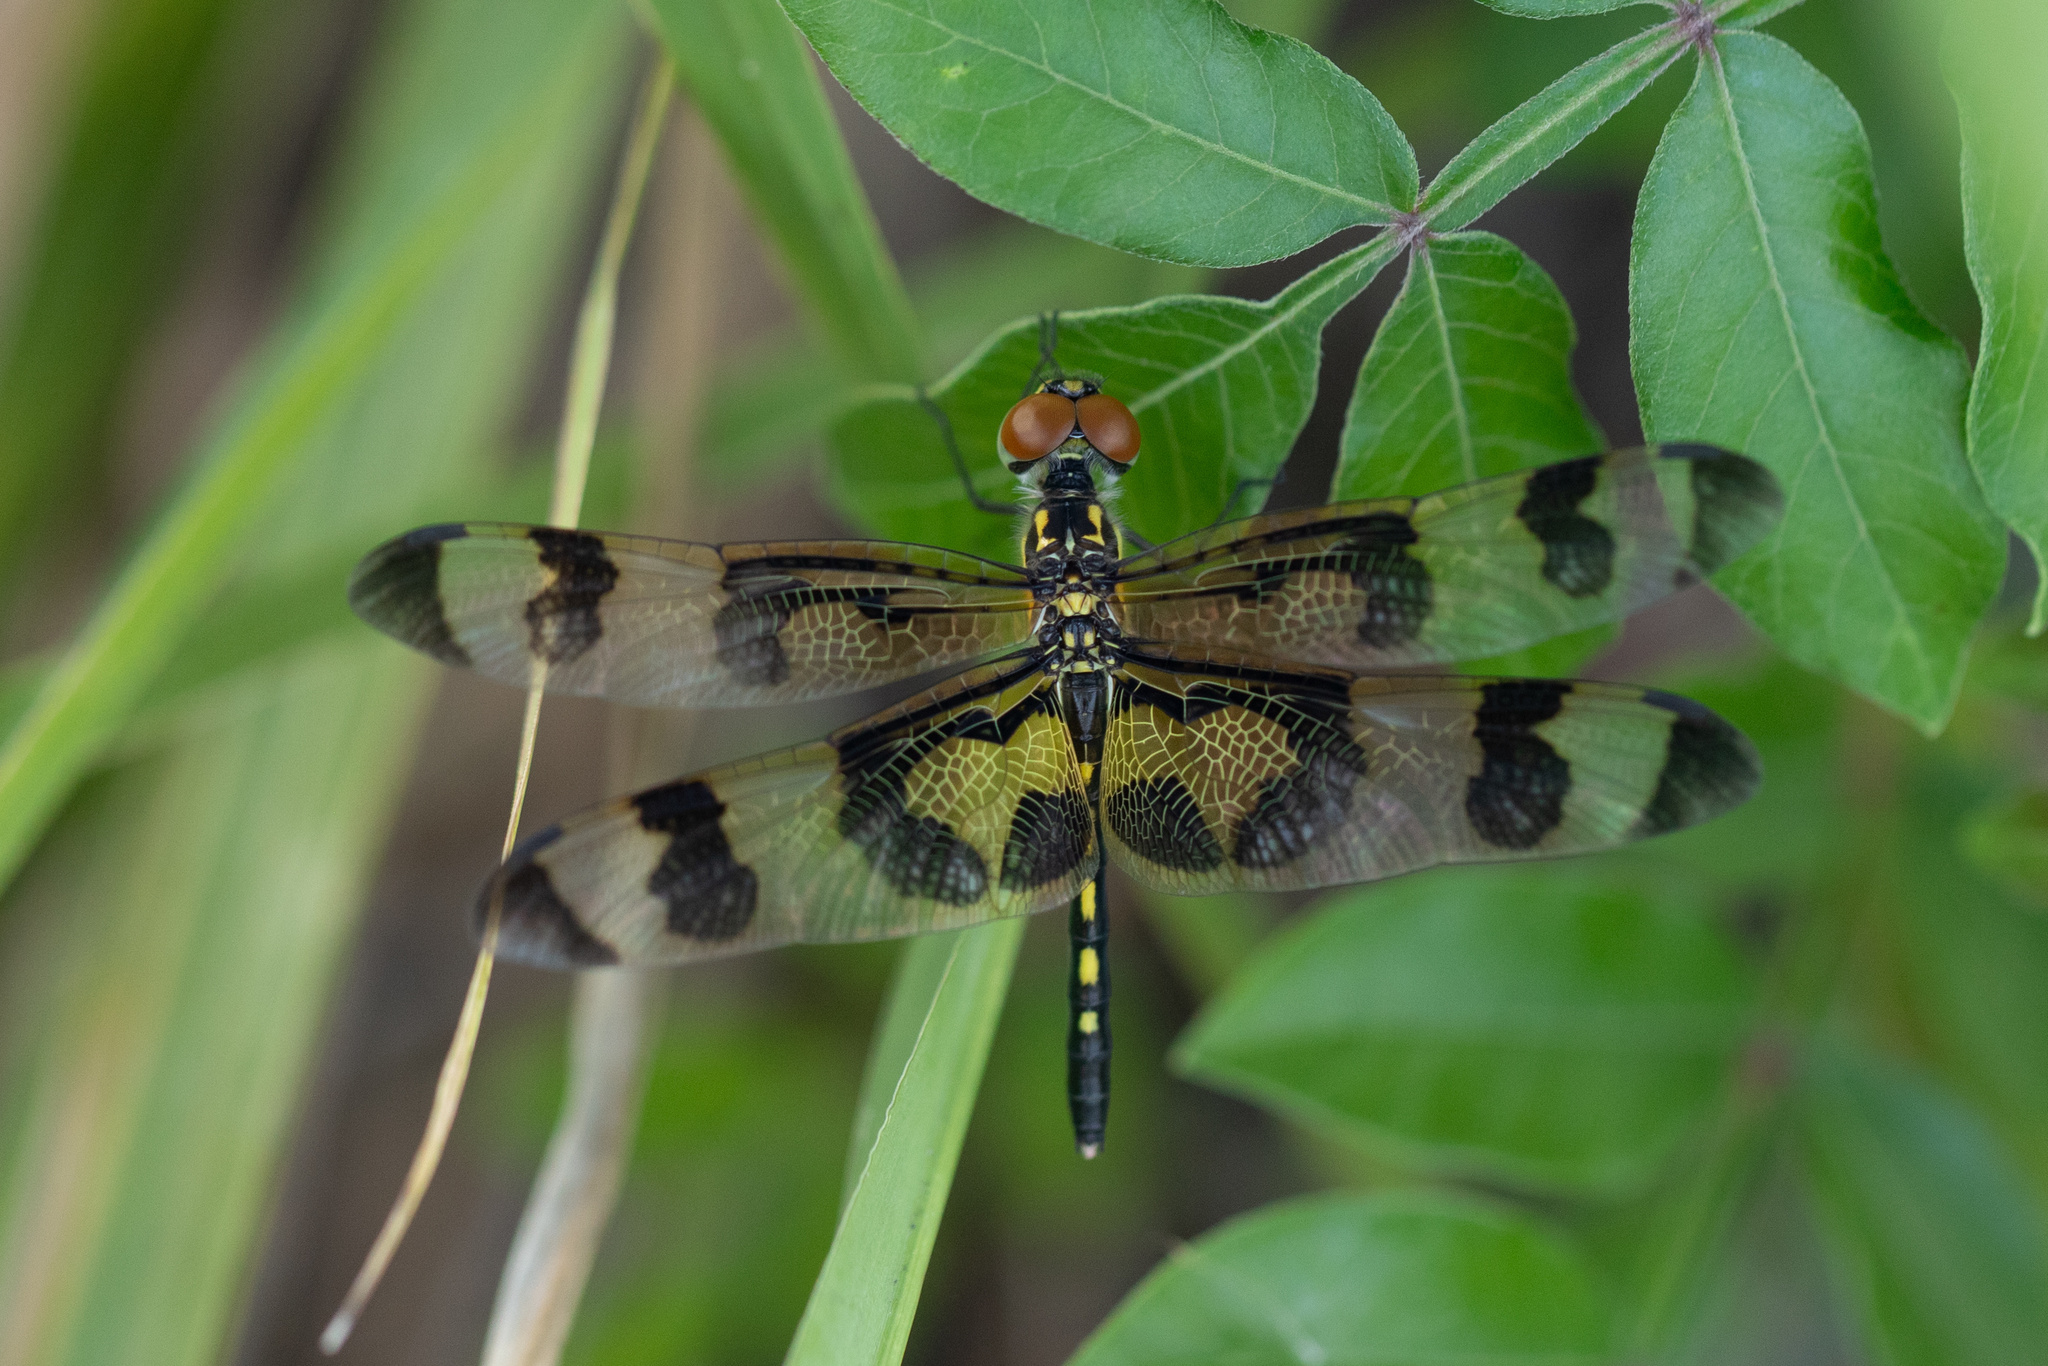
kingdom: Animalia
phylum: Arthropoda
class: Insecta
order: Odonata
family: Libellulidae
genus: Celithemis
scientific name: Celithemis fasciata
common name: Banded pennant
